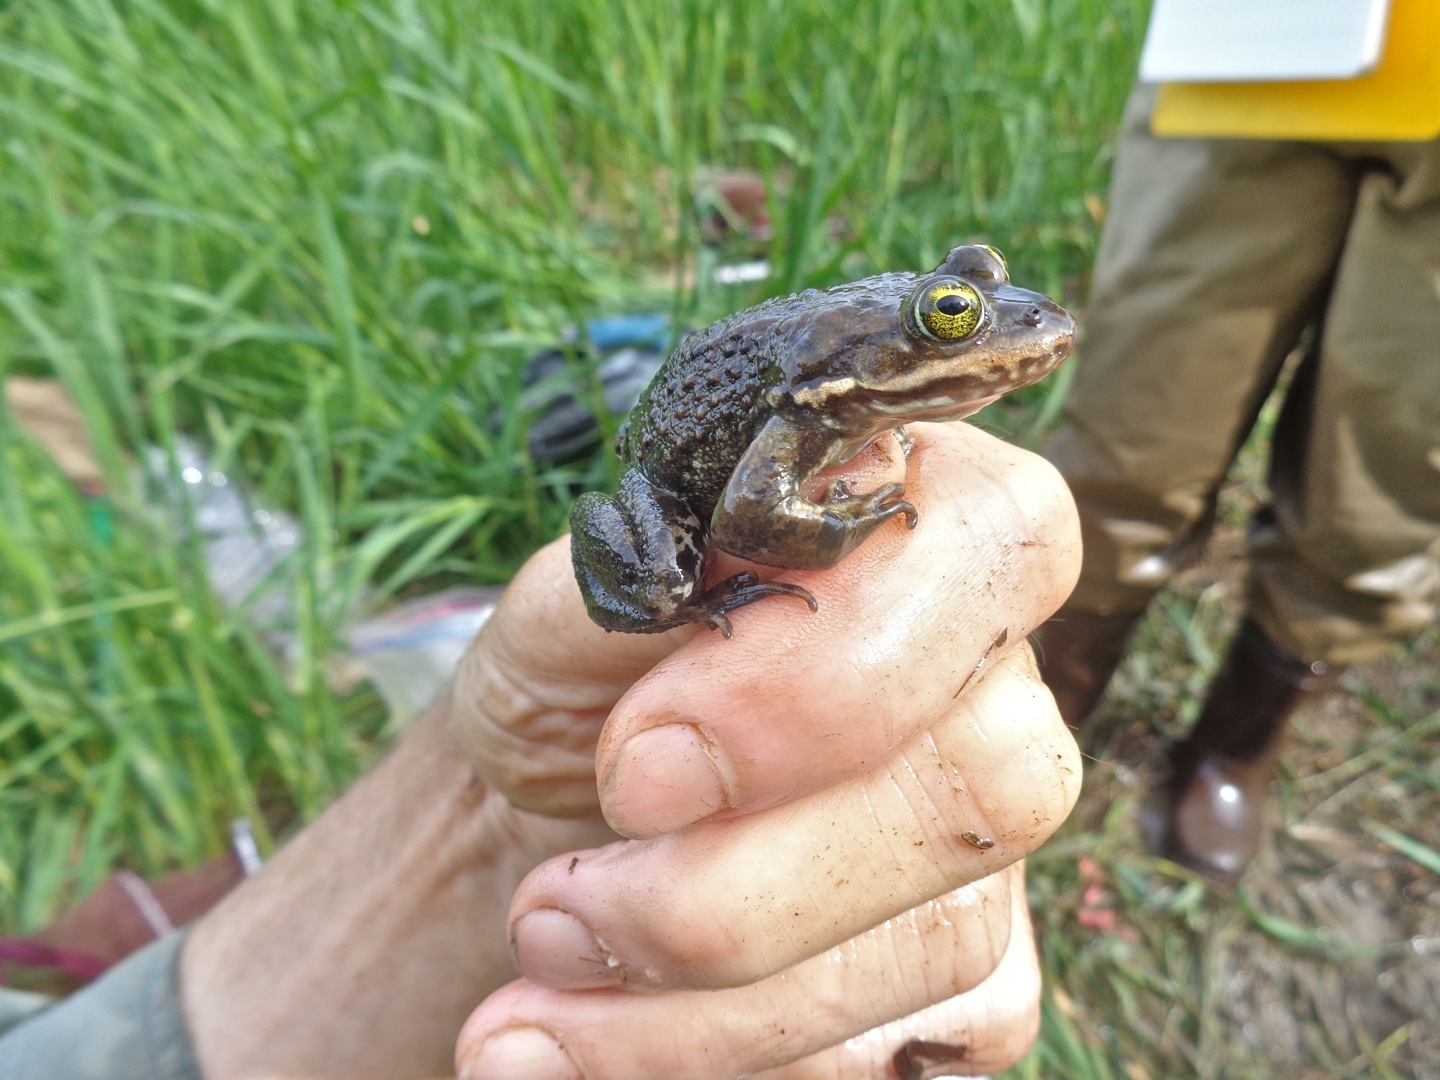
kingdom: Animalia
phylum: Chordata
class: Amphibia
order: Anura
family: Ranidae
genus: Rana
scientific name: Rana pretiosa
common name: Oregon spotted frog
